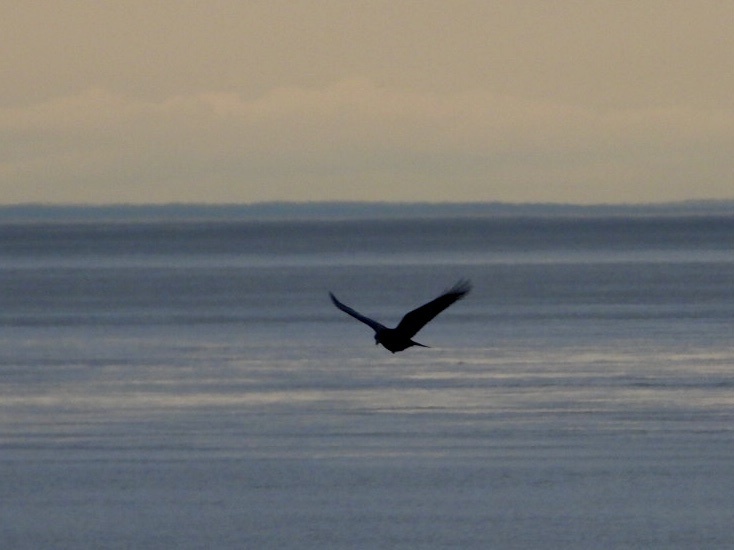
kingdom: Animalia
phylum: Chordata
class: Aves
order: Passeriformes
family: Corvidae
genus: Corvus
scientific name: Corvus brachyrhynchos
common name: American crow
